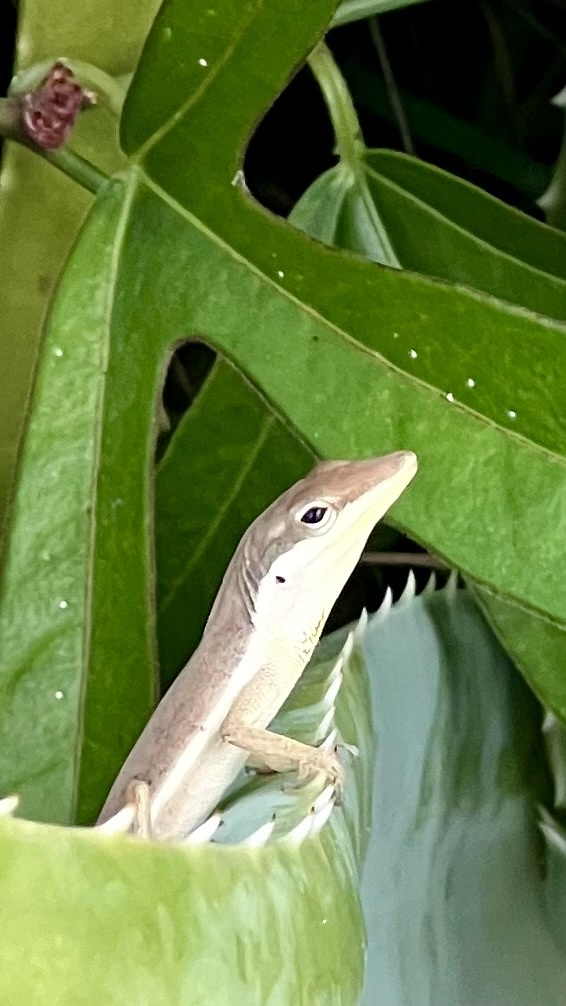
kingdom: Animalia
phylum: Chordata
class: Squamata
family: Dactyloidae
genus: Anolis
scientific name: Anolis pulchellus
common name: Puerto rican anole
